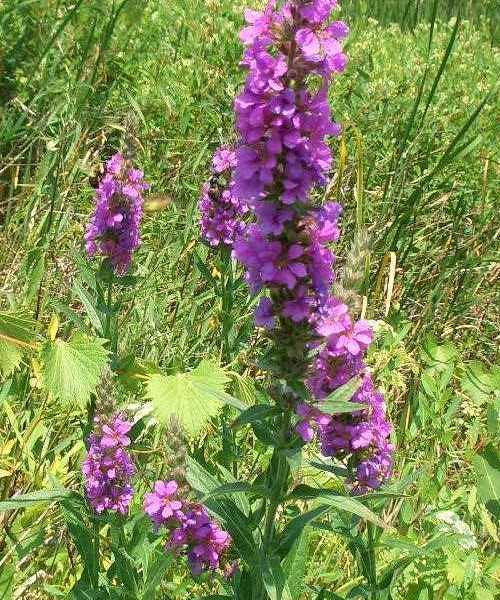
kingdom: Plantae
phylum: Tracheophyta
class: Magnoliopsida
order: Myrtales
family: Lythraceae
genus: Lythrum
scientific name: Lythrum salicaria
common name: Purple loosestrife
